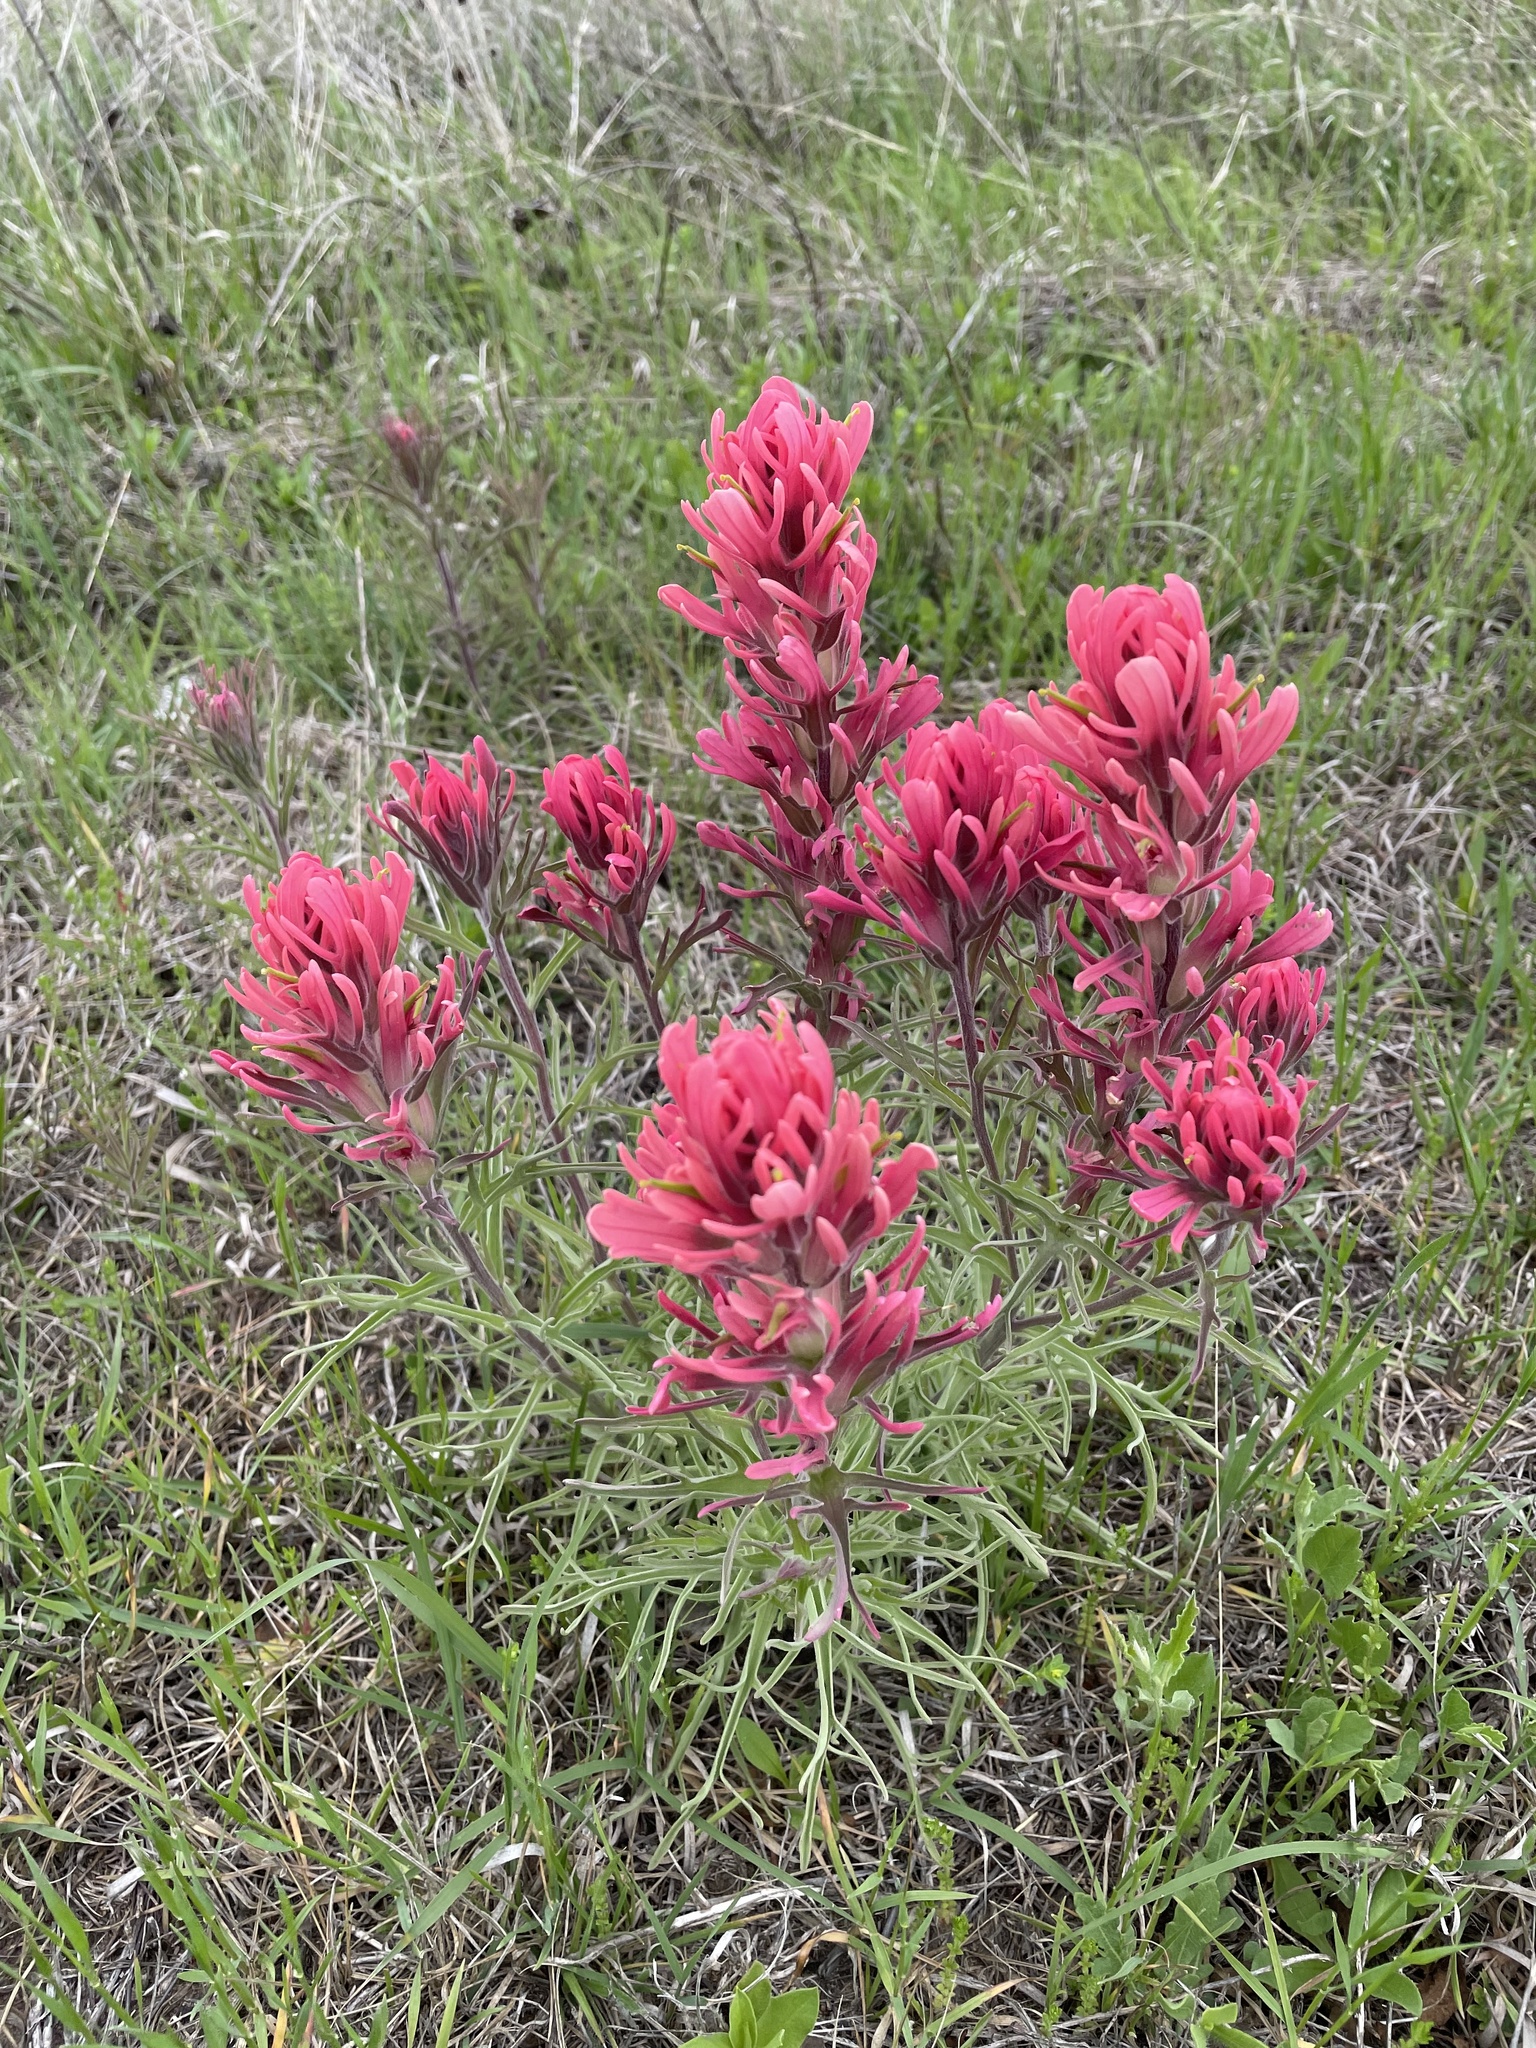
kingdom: Plantae
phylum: Tracheophyta
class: Magnoliopsida
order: Lamiales
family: Orobanchaceae
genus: Castilleja
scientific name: Castilleja purpurea
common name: Plains paintbrush
